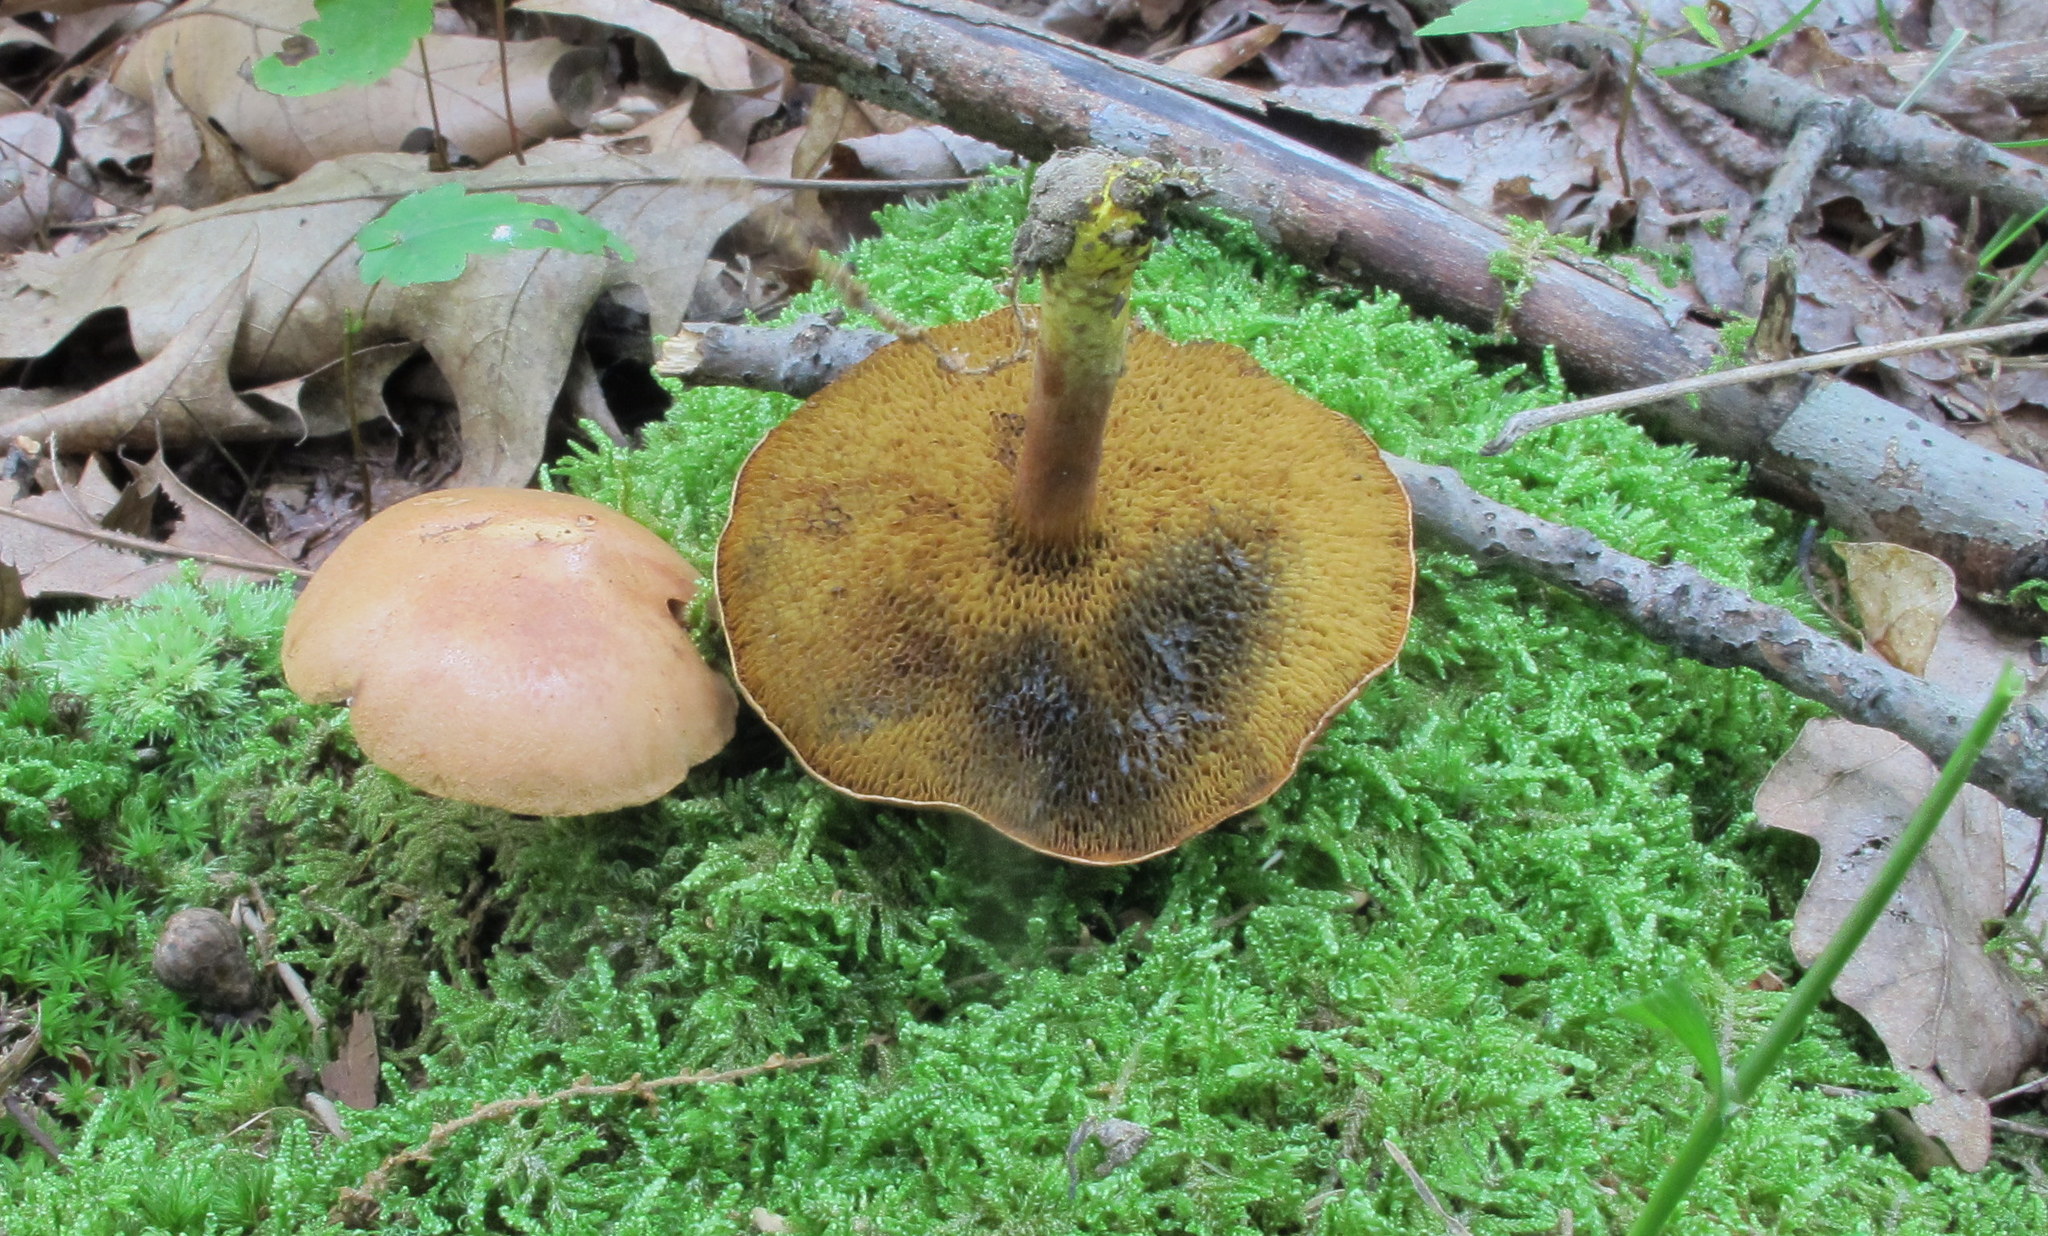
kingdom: Fungi
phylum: Basidiomycota
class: Agaricomycetes
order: Boletales
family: Boletaceae
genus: Chalciporus
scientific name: Chalciporus piperatoides
